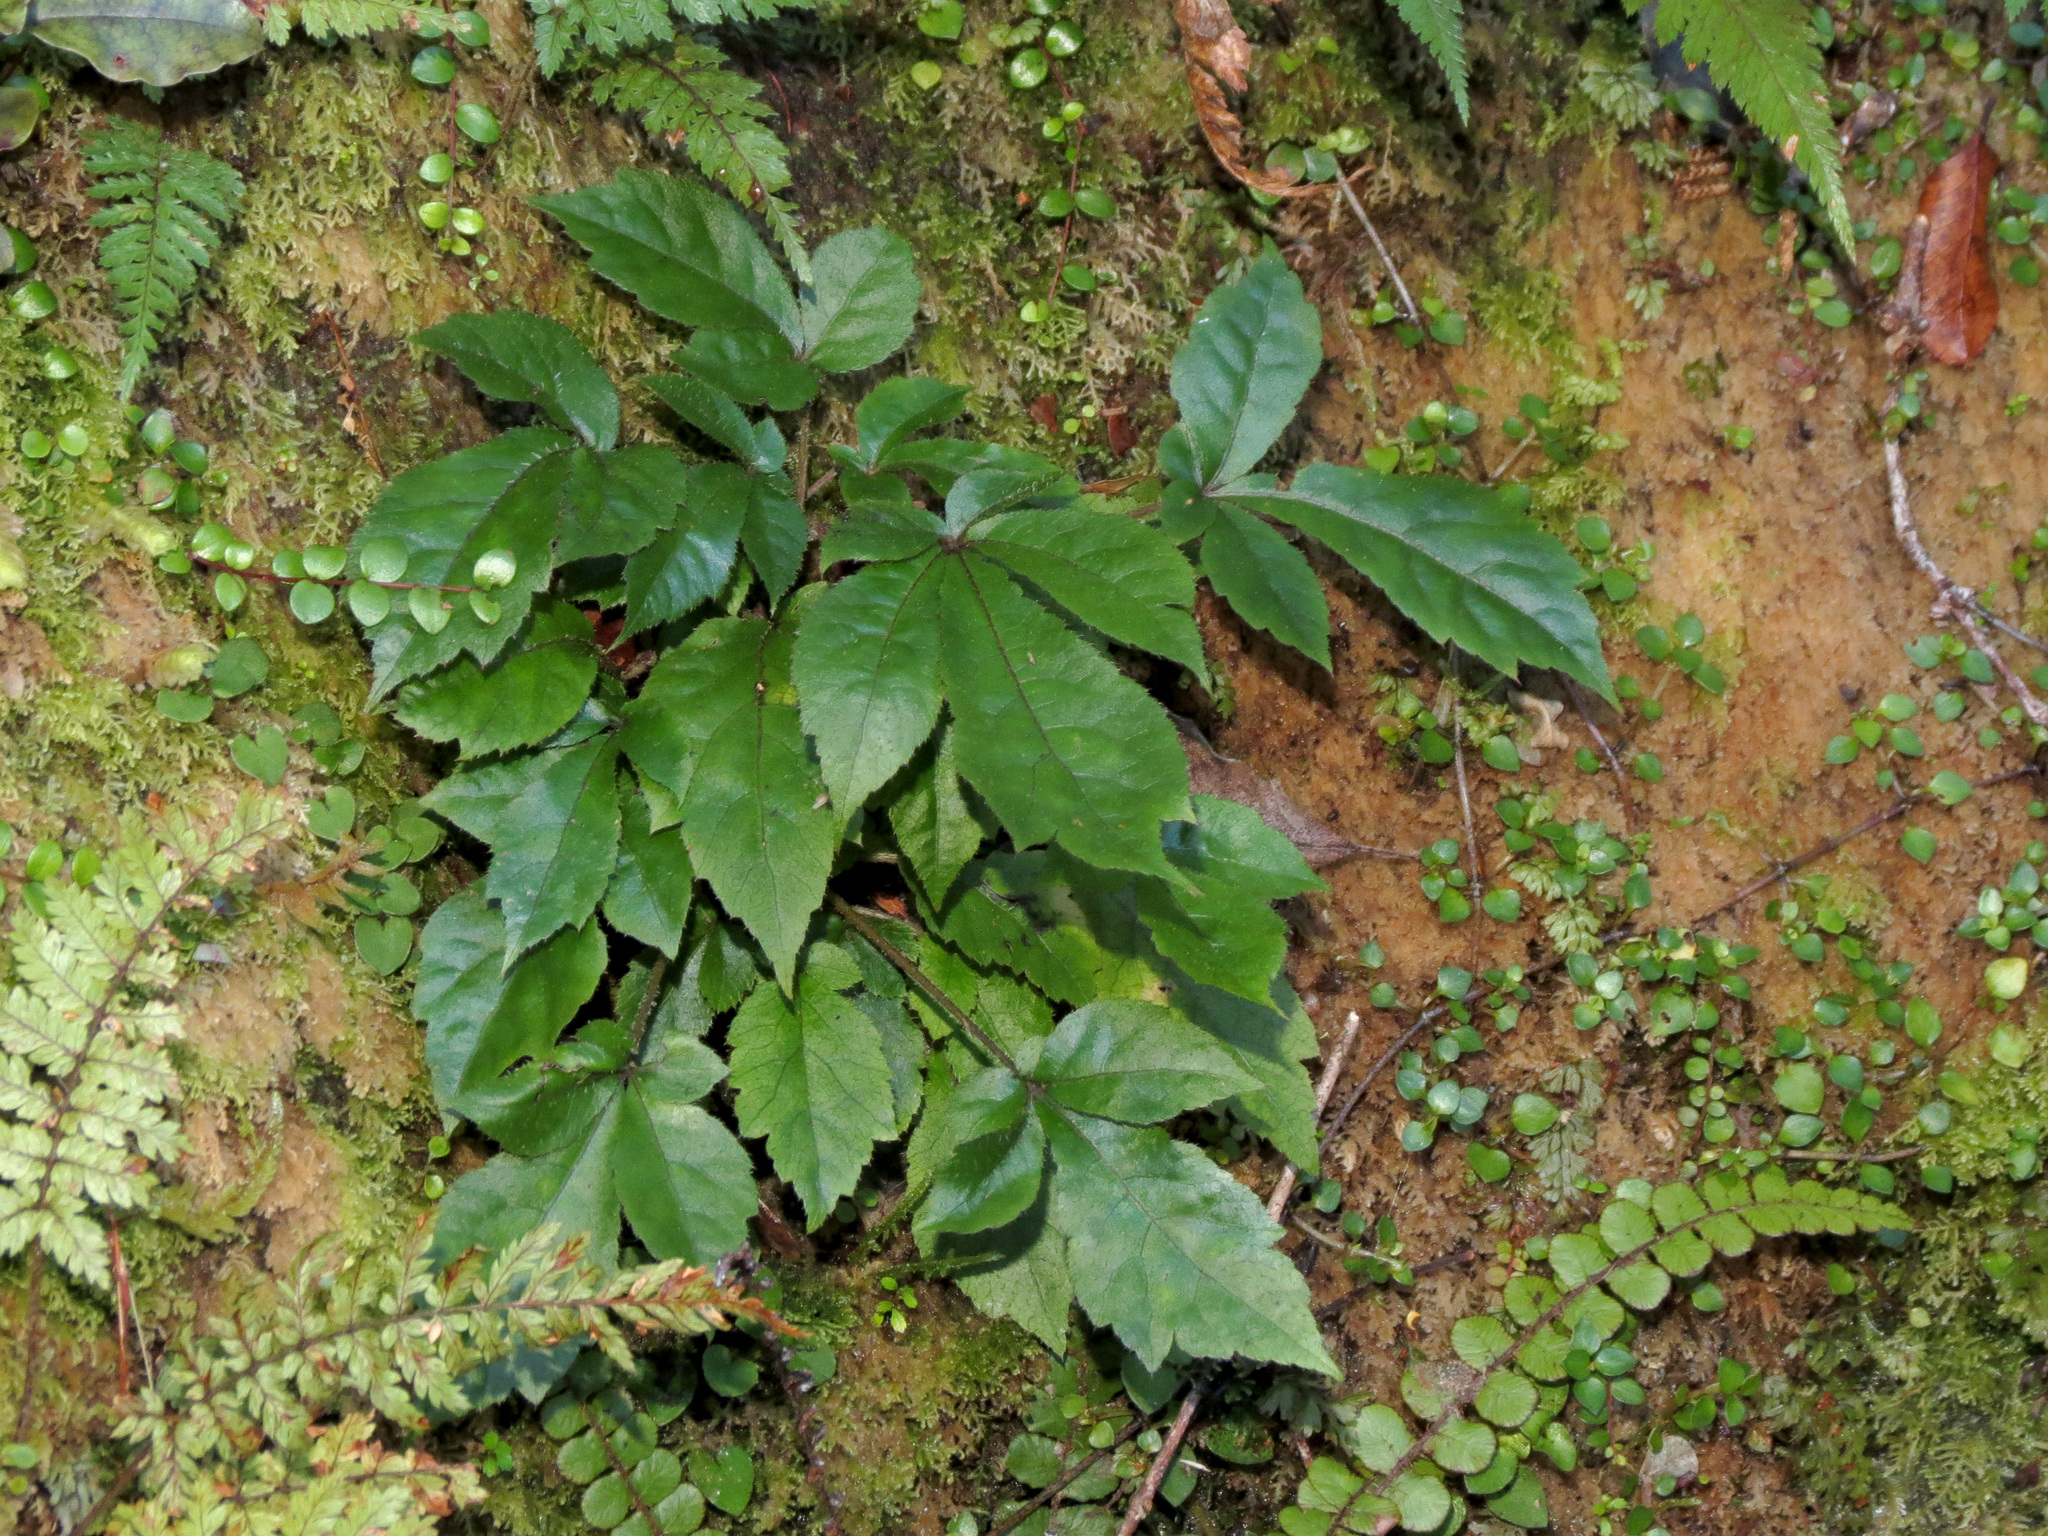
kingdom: Plantae
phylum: Tracheophyta
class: Magnoliopsida
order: Apiales
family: Araliaceae
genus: Schefflera
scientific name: Schefflera digitata
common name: Pate
